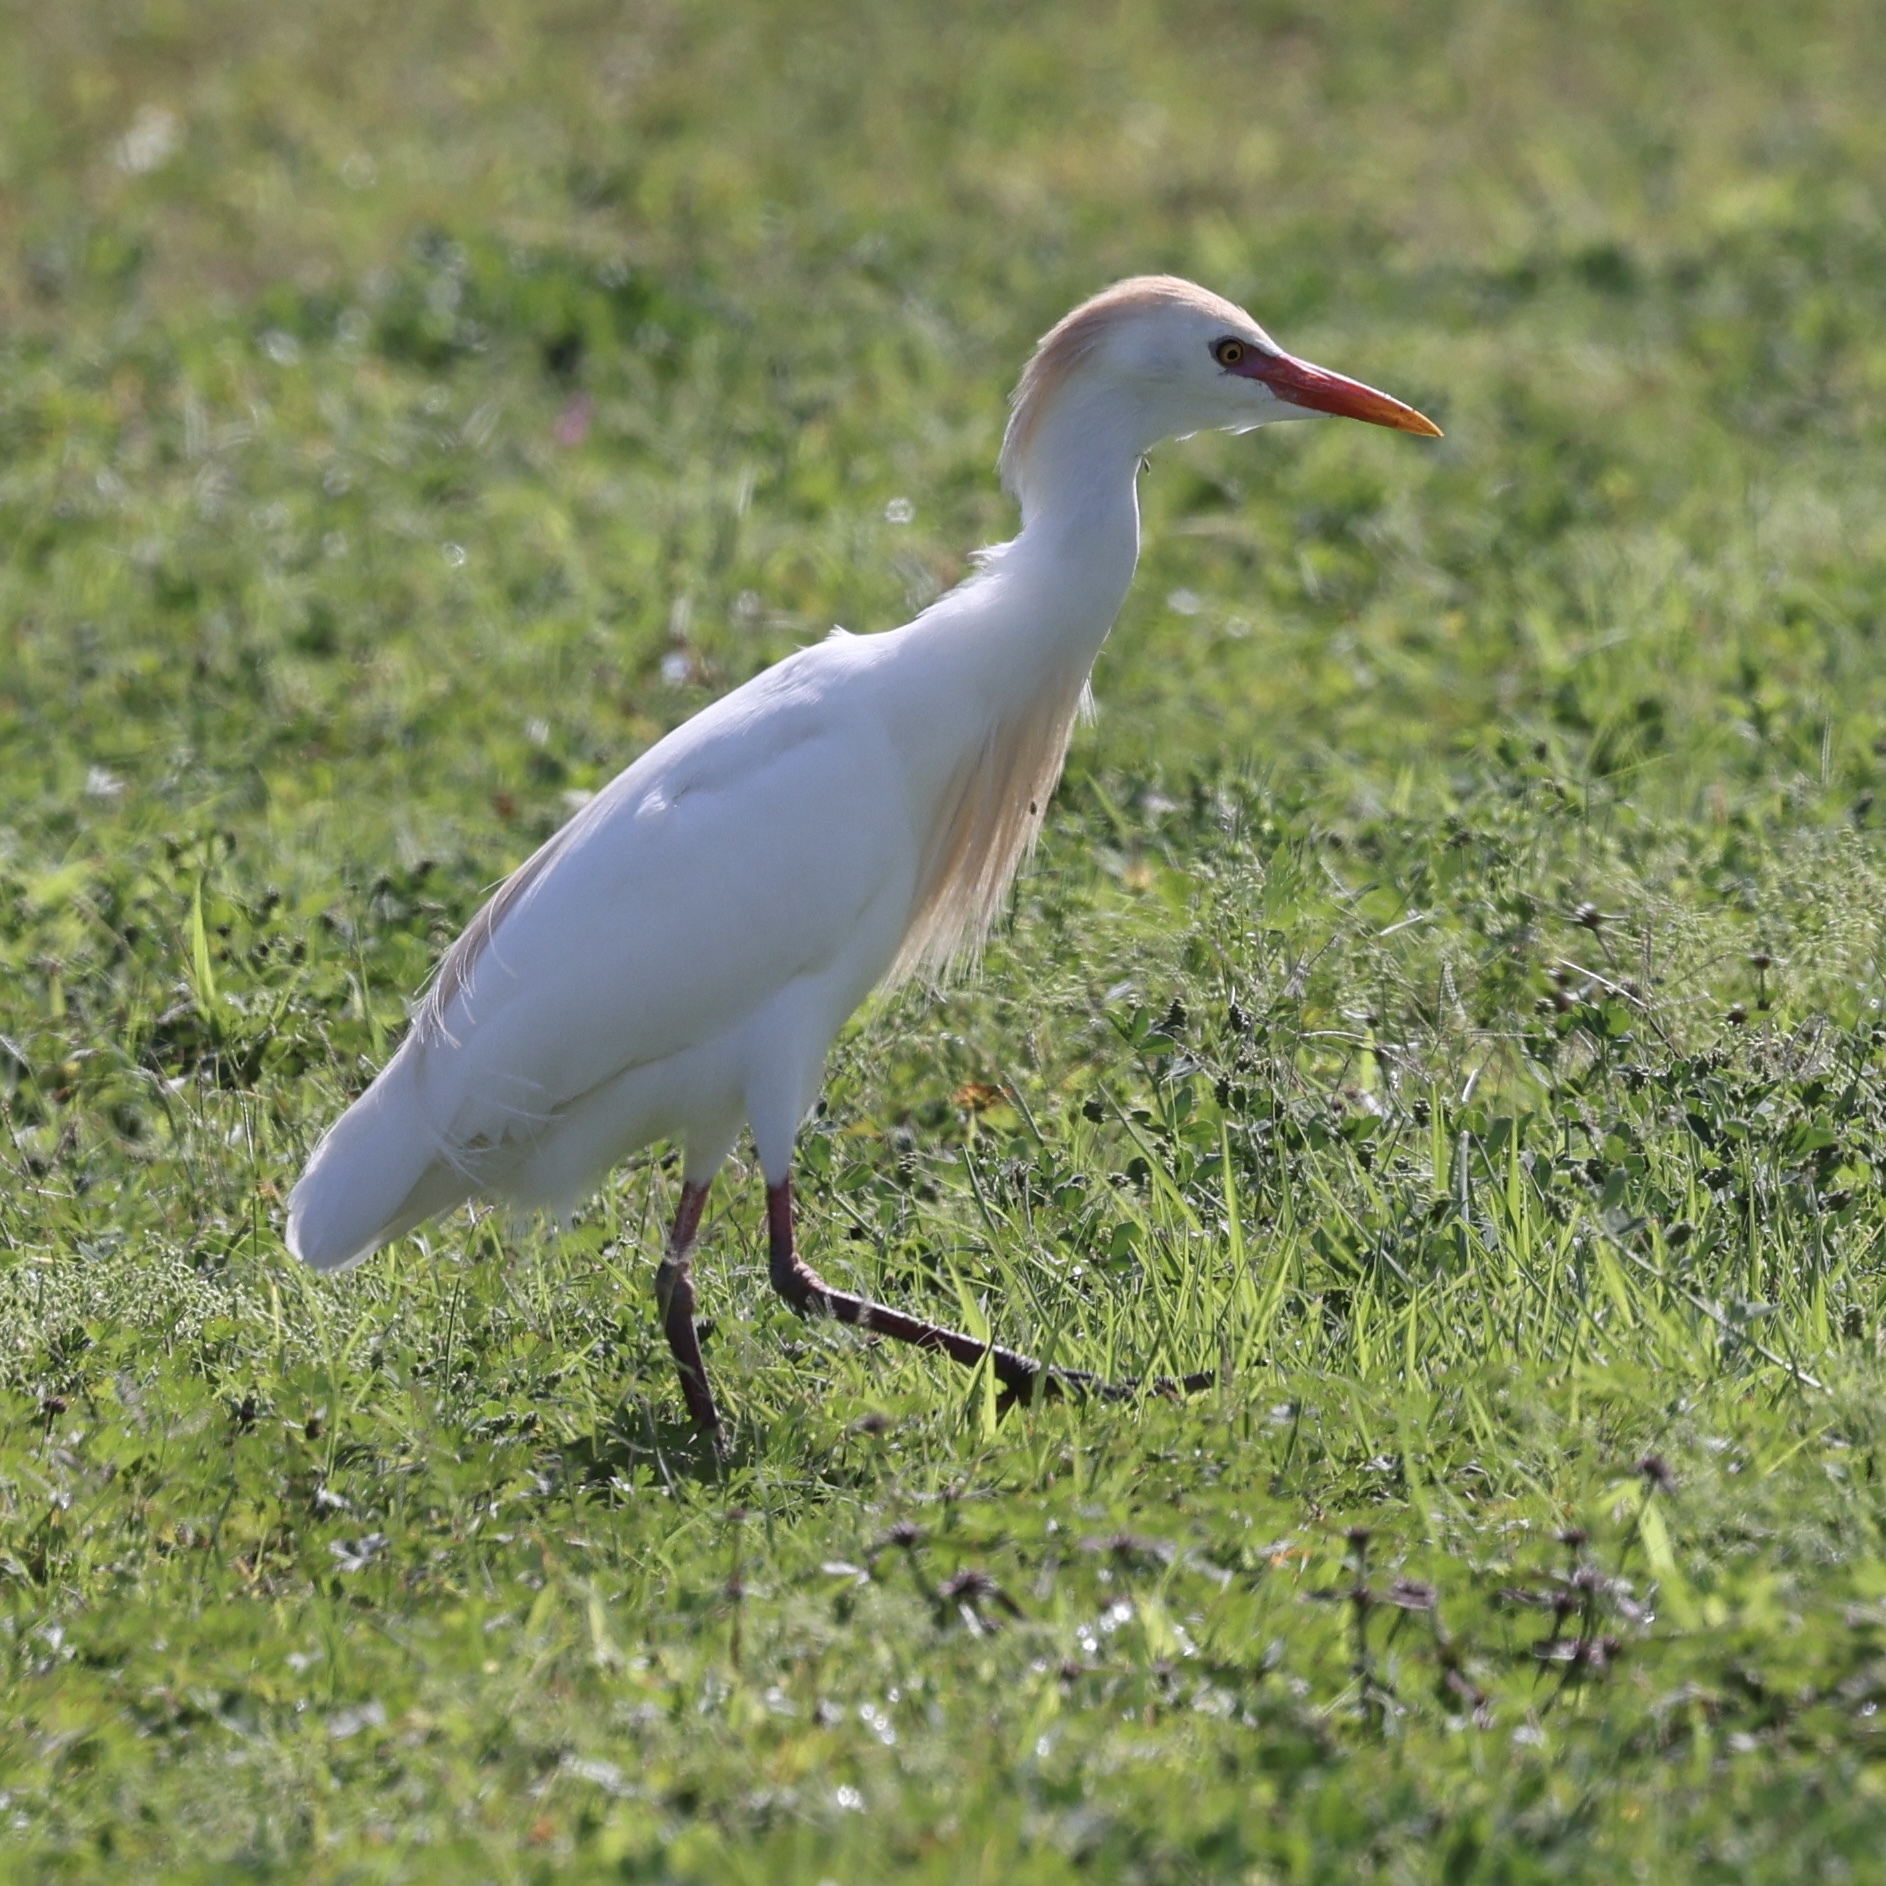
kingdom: Animalia
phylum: Chordata
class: Aves
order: Pelecaniformes
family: Ardeidae
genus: Bubulcus
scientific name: Bubulcus ibis
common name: Cattle egret
